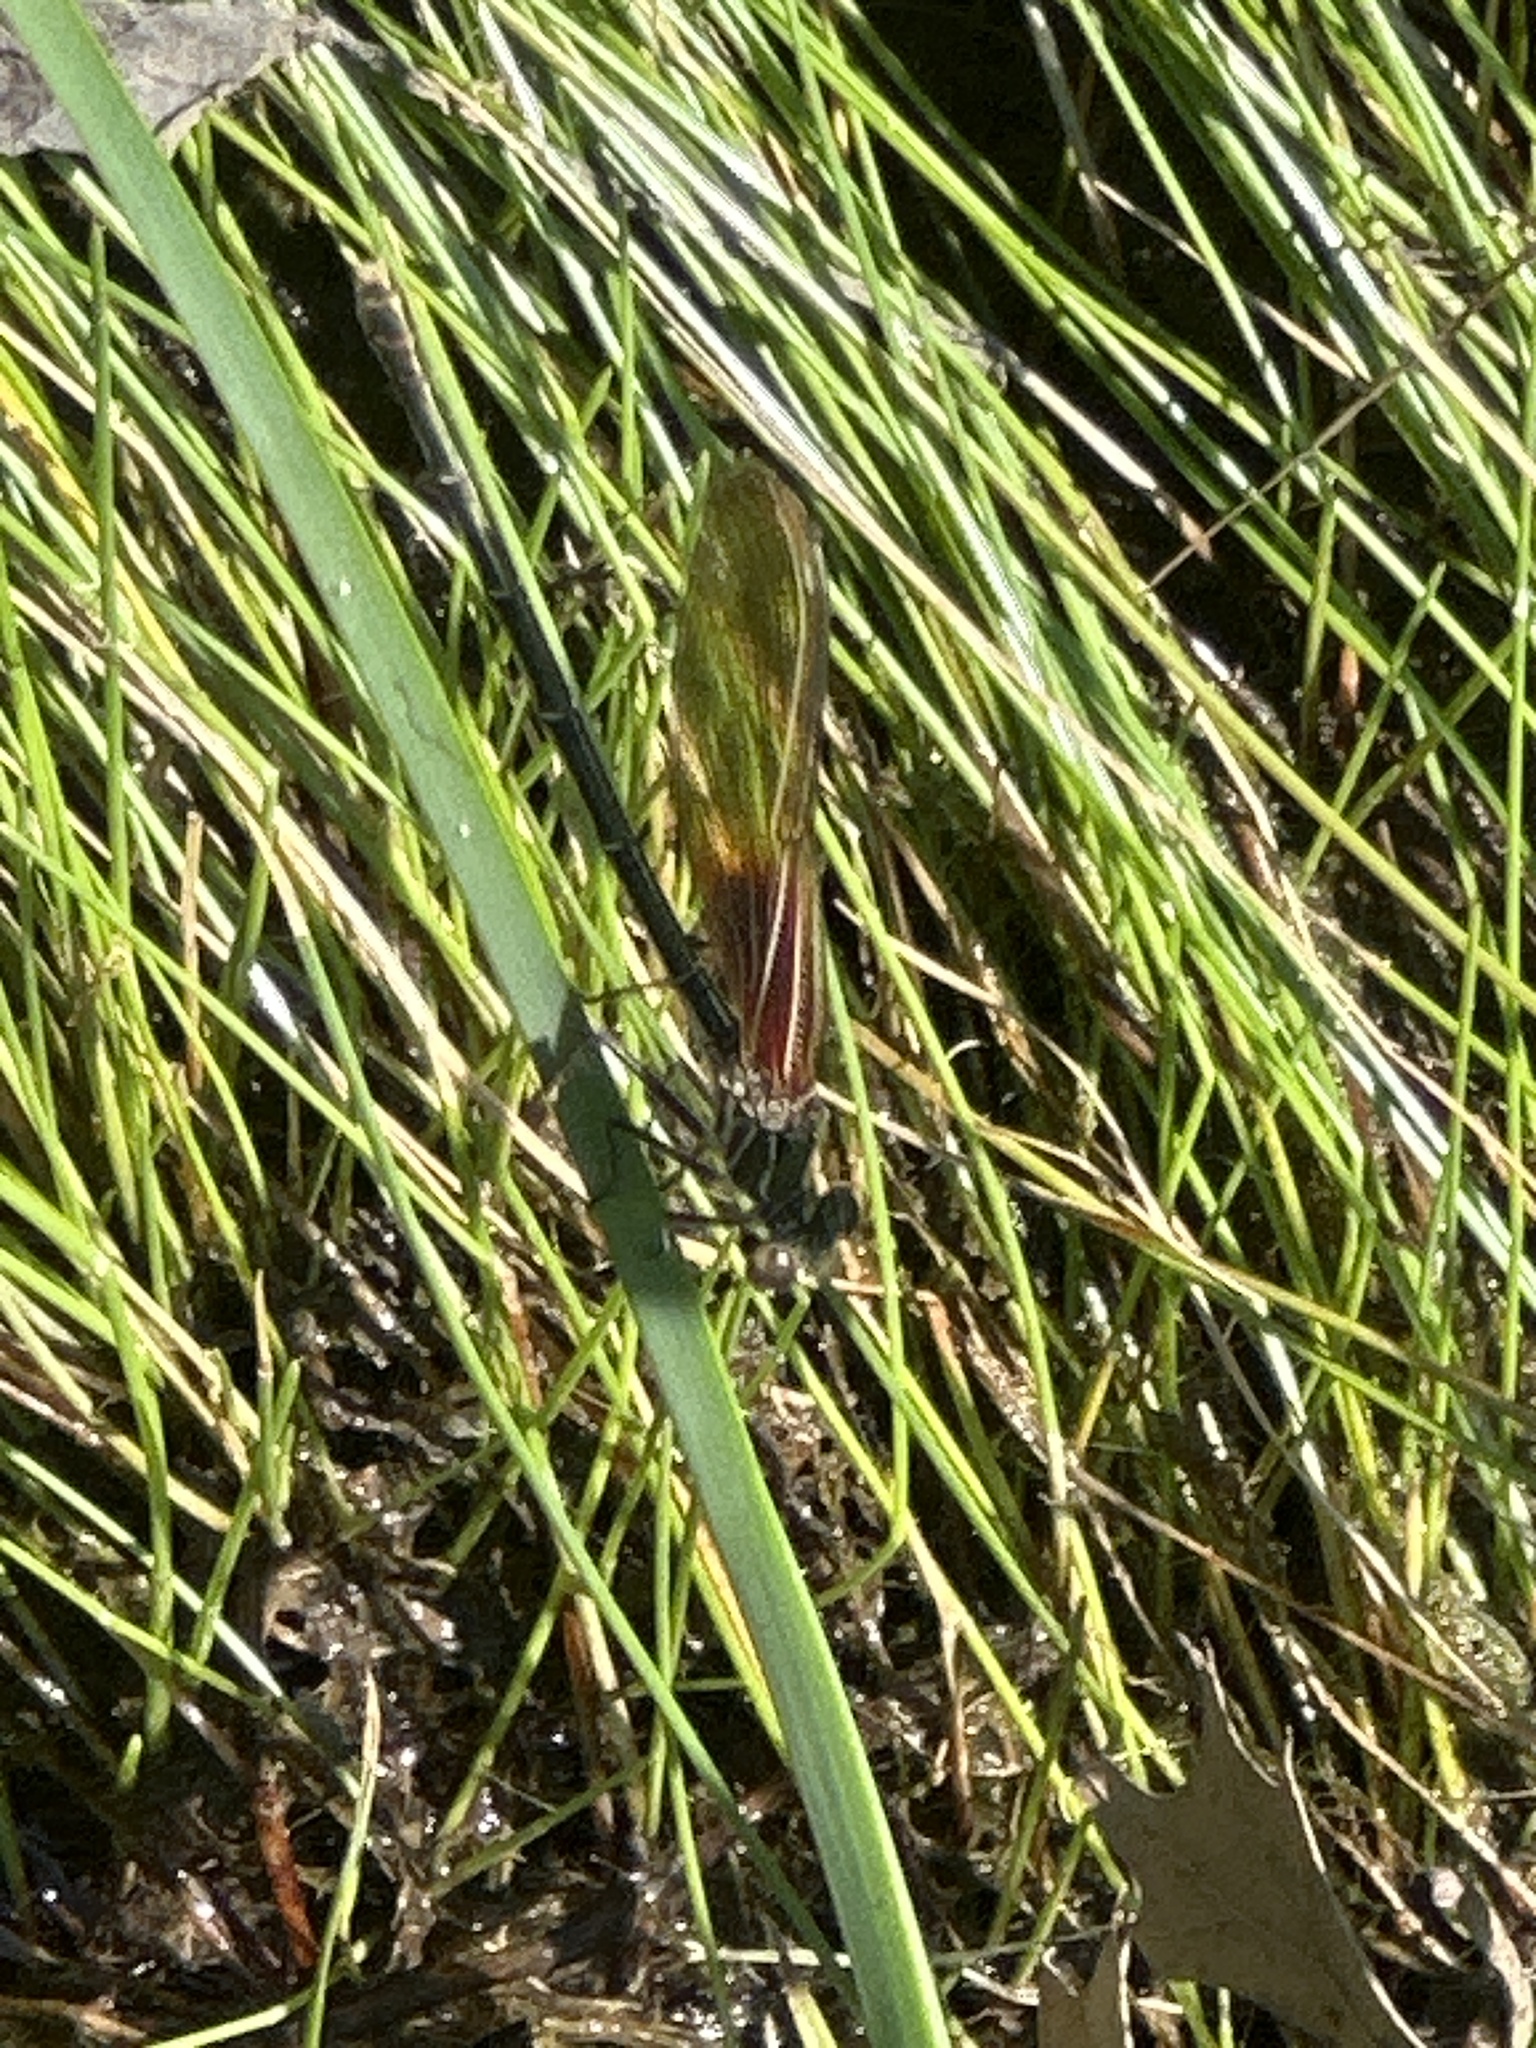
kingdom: Animalia
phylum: Arthropoda
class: Insecta
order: Odonata
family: Calopterygidae
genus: Hetaerina
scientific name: Hetaerina americana
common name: American rubyspot
